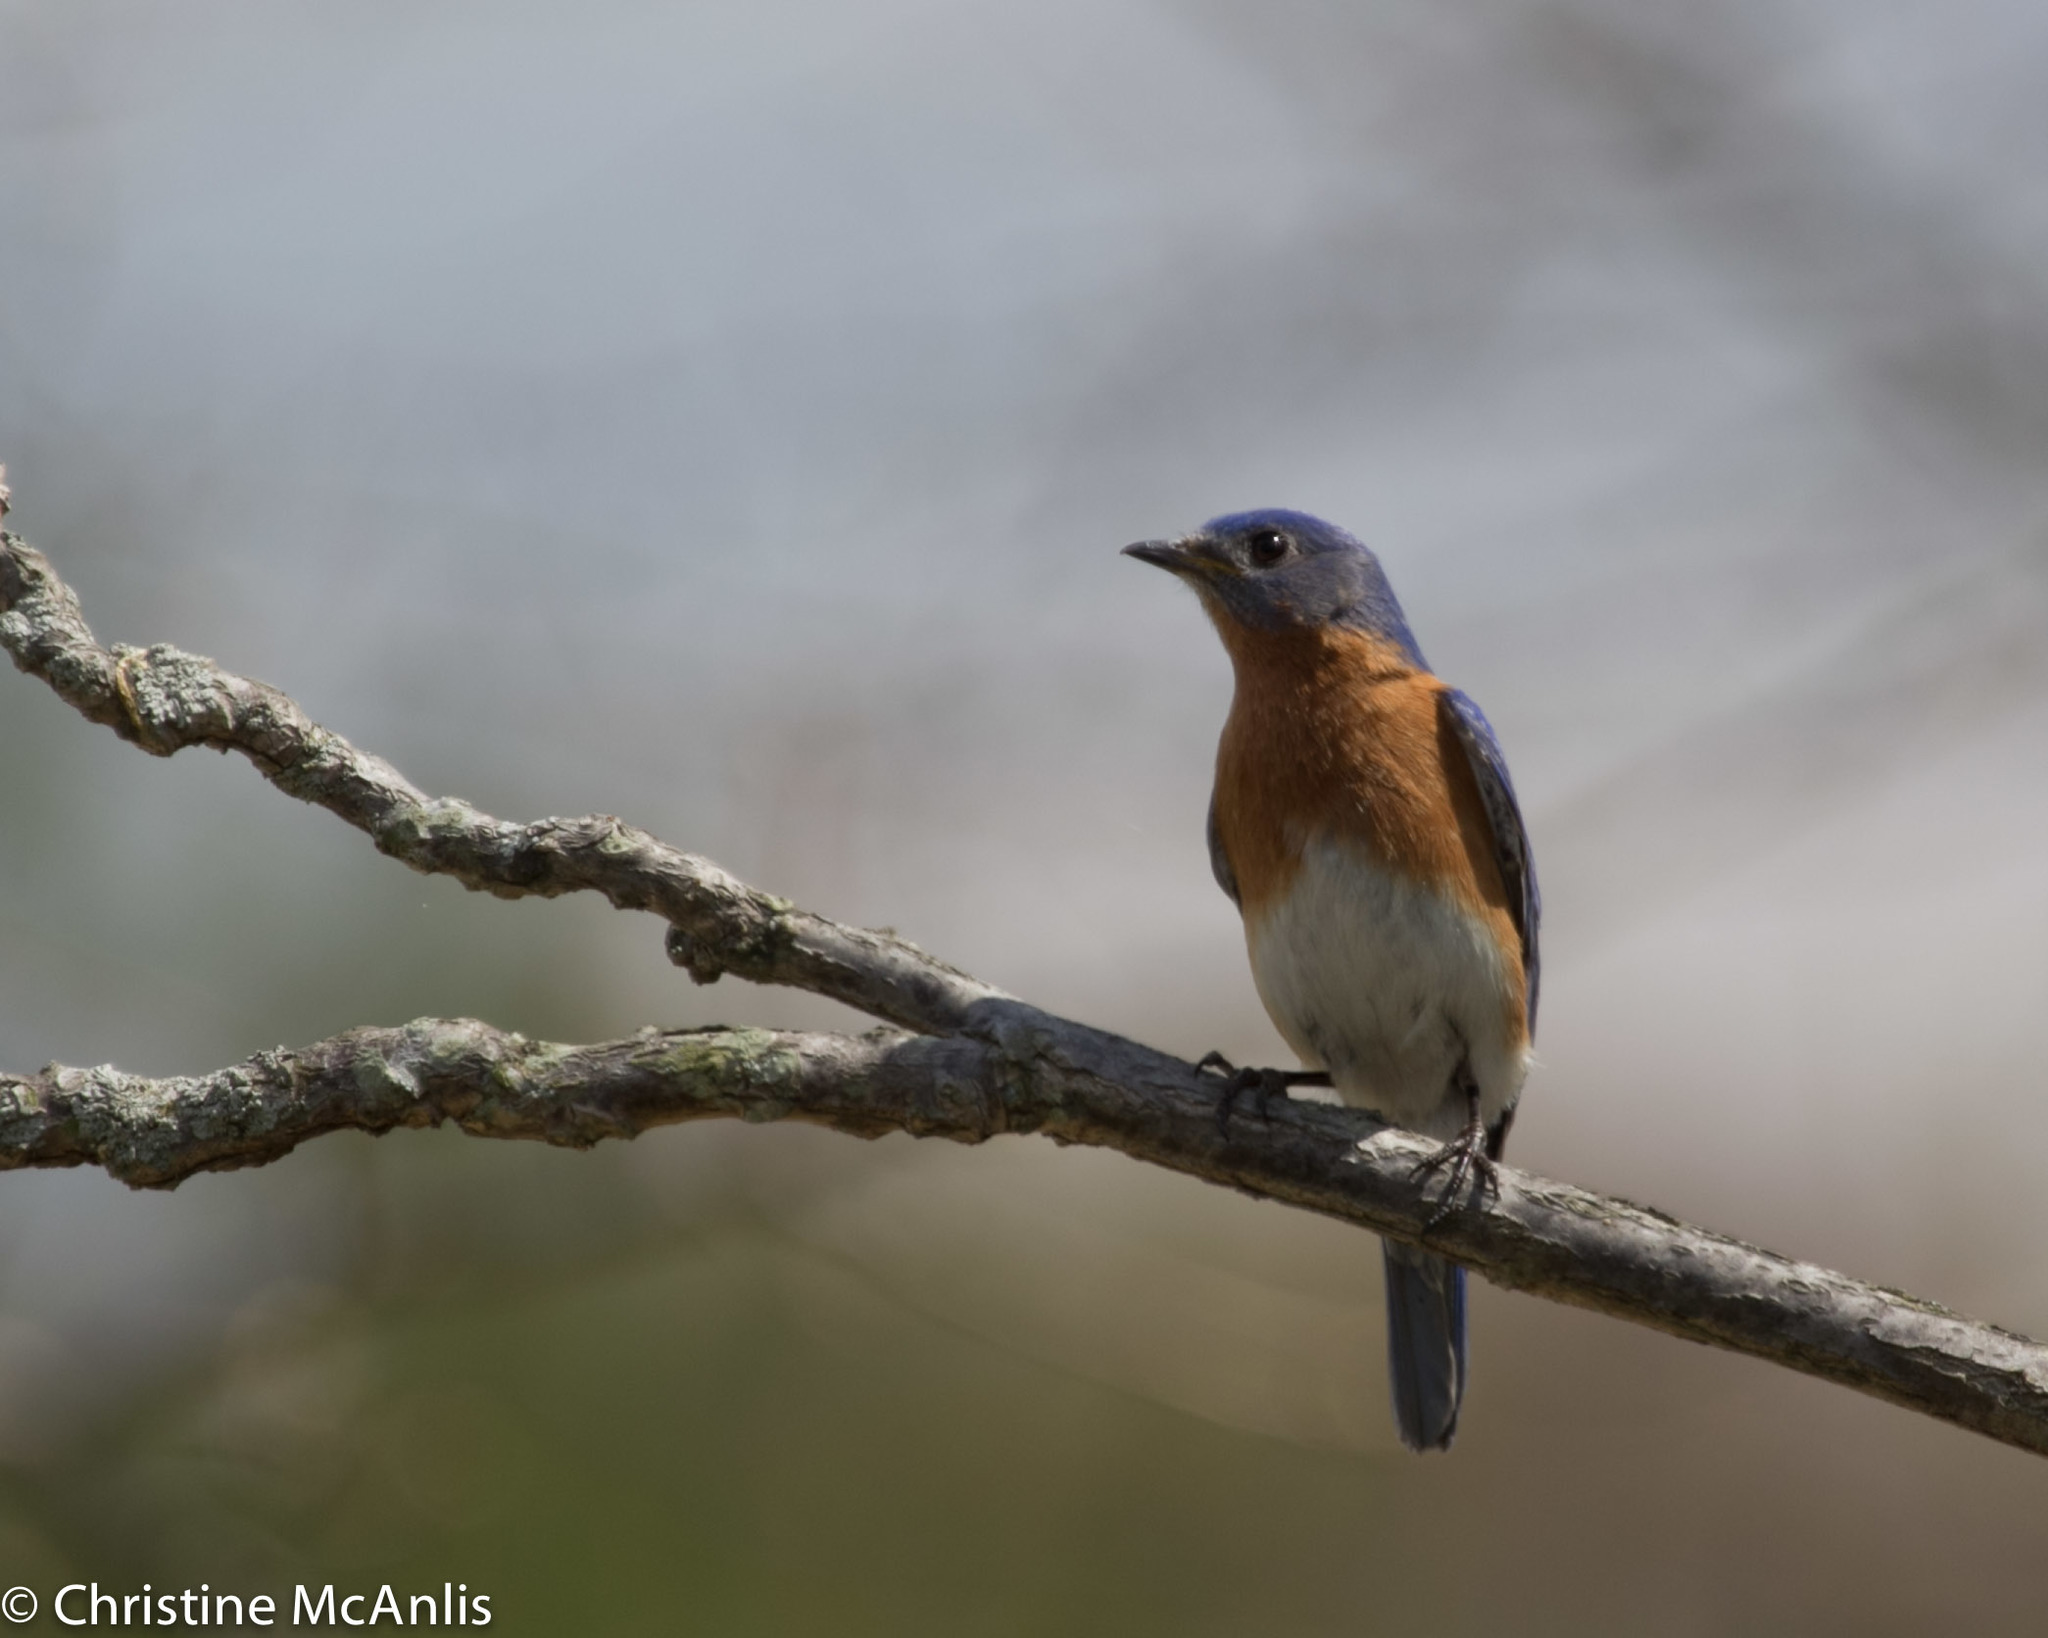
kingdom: Animalia
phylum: Chordata
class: Aves
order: Passeriformes
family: Turdidae
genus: Sialia
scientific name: Sialia sialis
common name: Eastern bluebird
